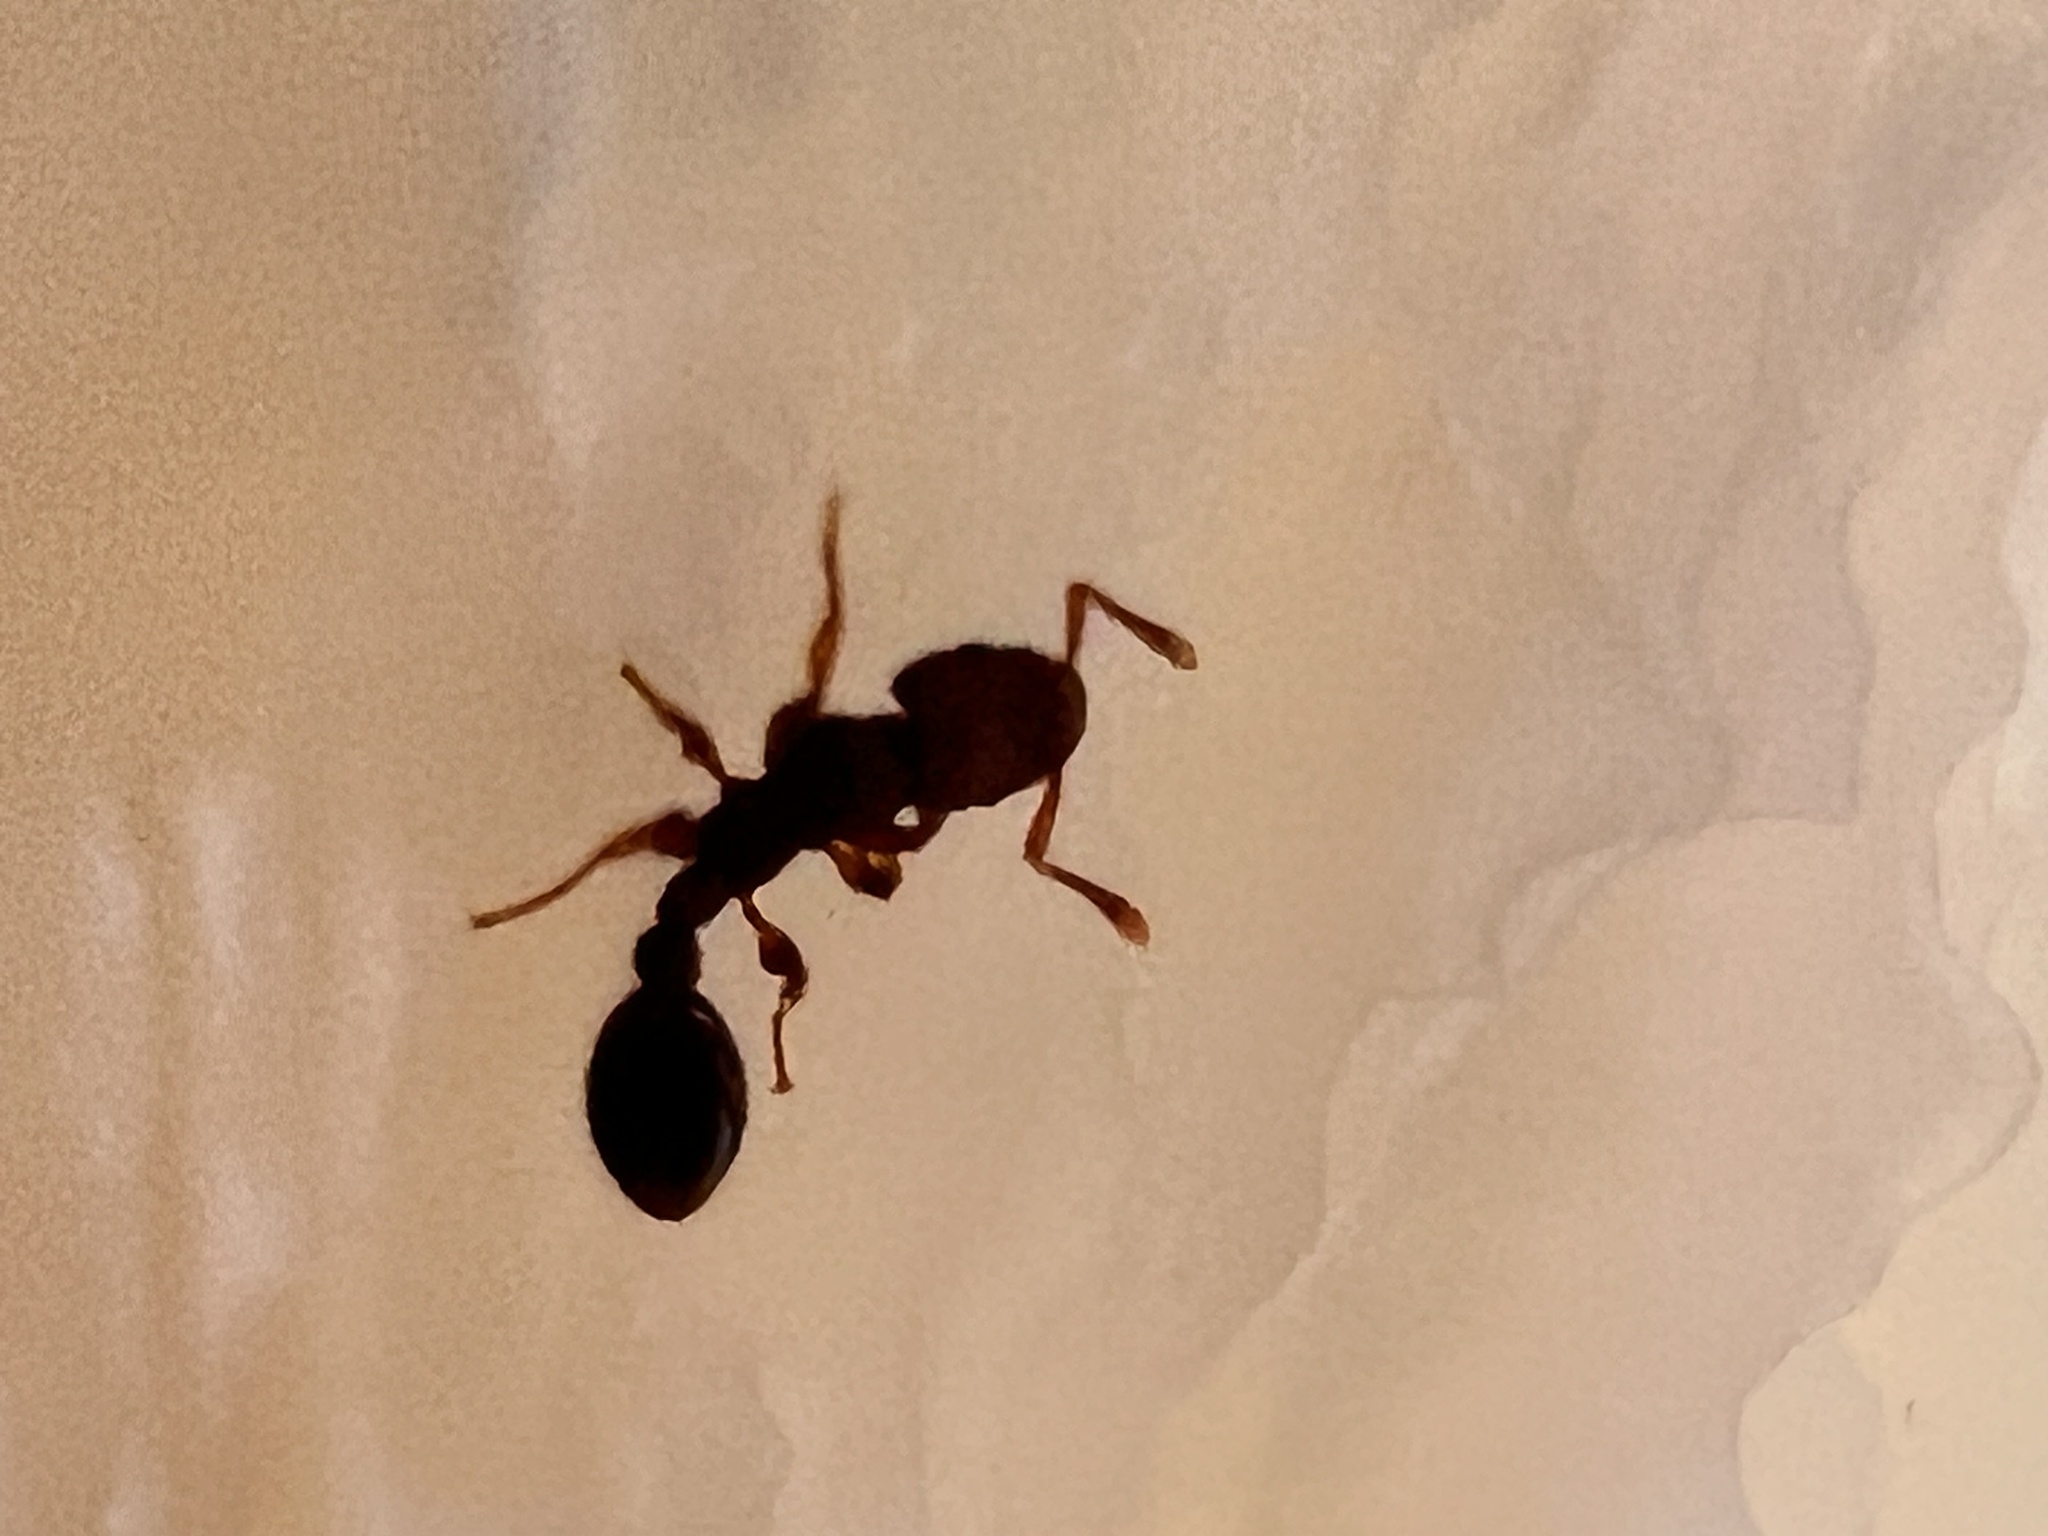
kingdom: Animalia
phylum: Arthropoda
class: Insecta
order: Hymenoptera
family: Formicidae
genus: Vollenhovia
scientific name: Vollenhovia emeryi
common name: Ant
